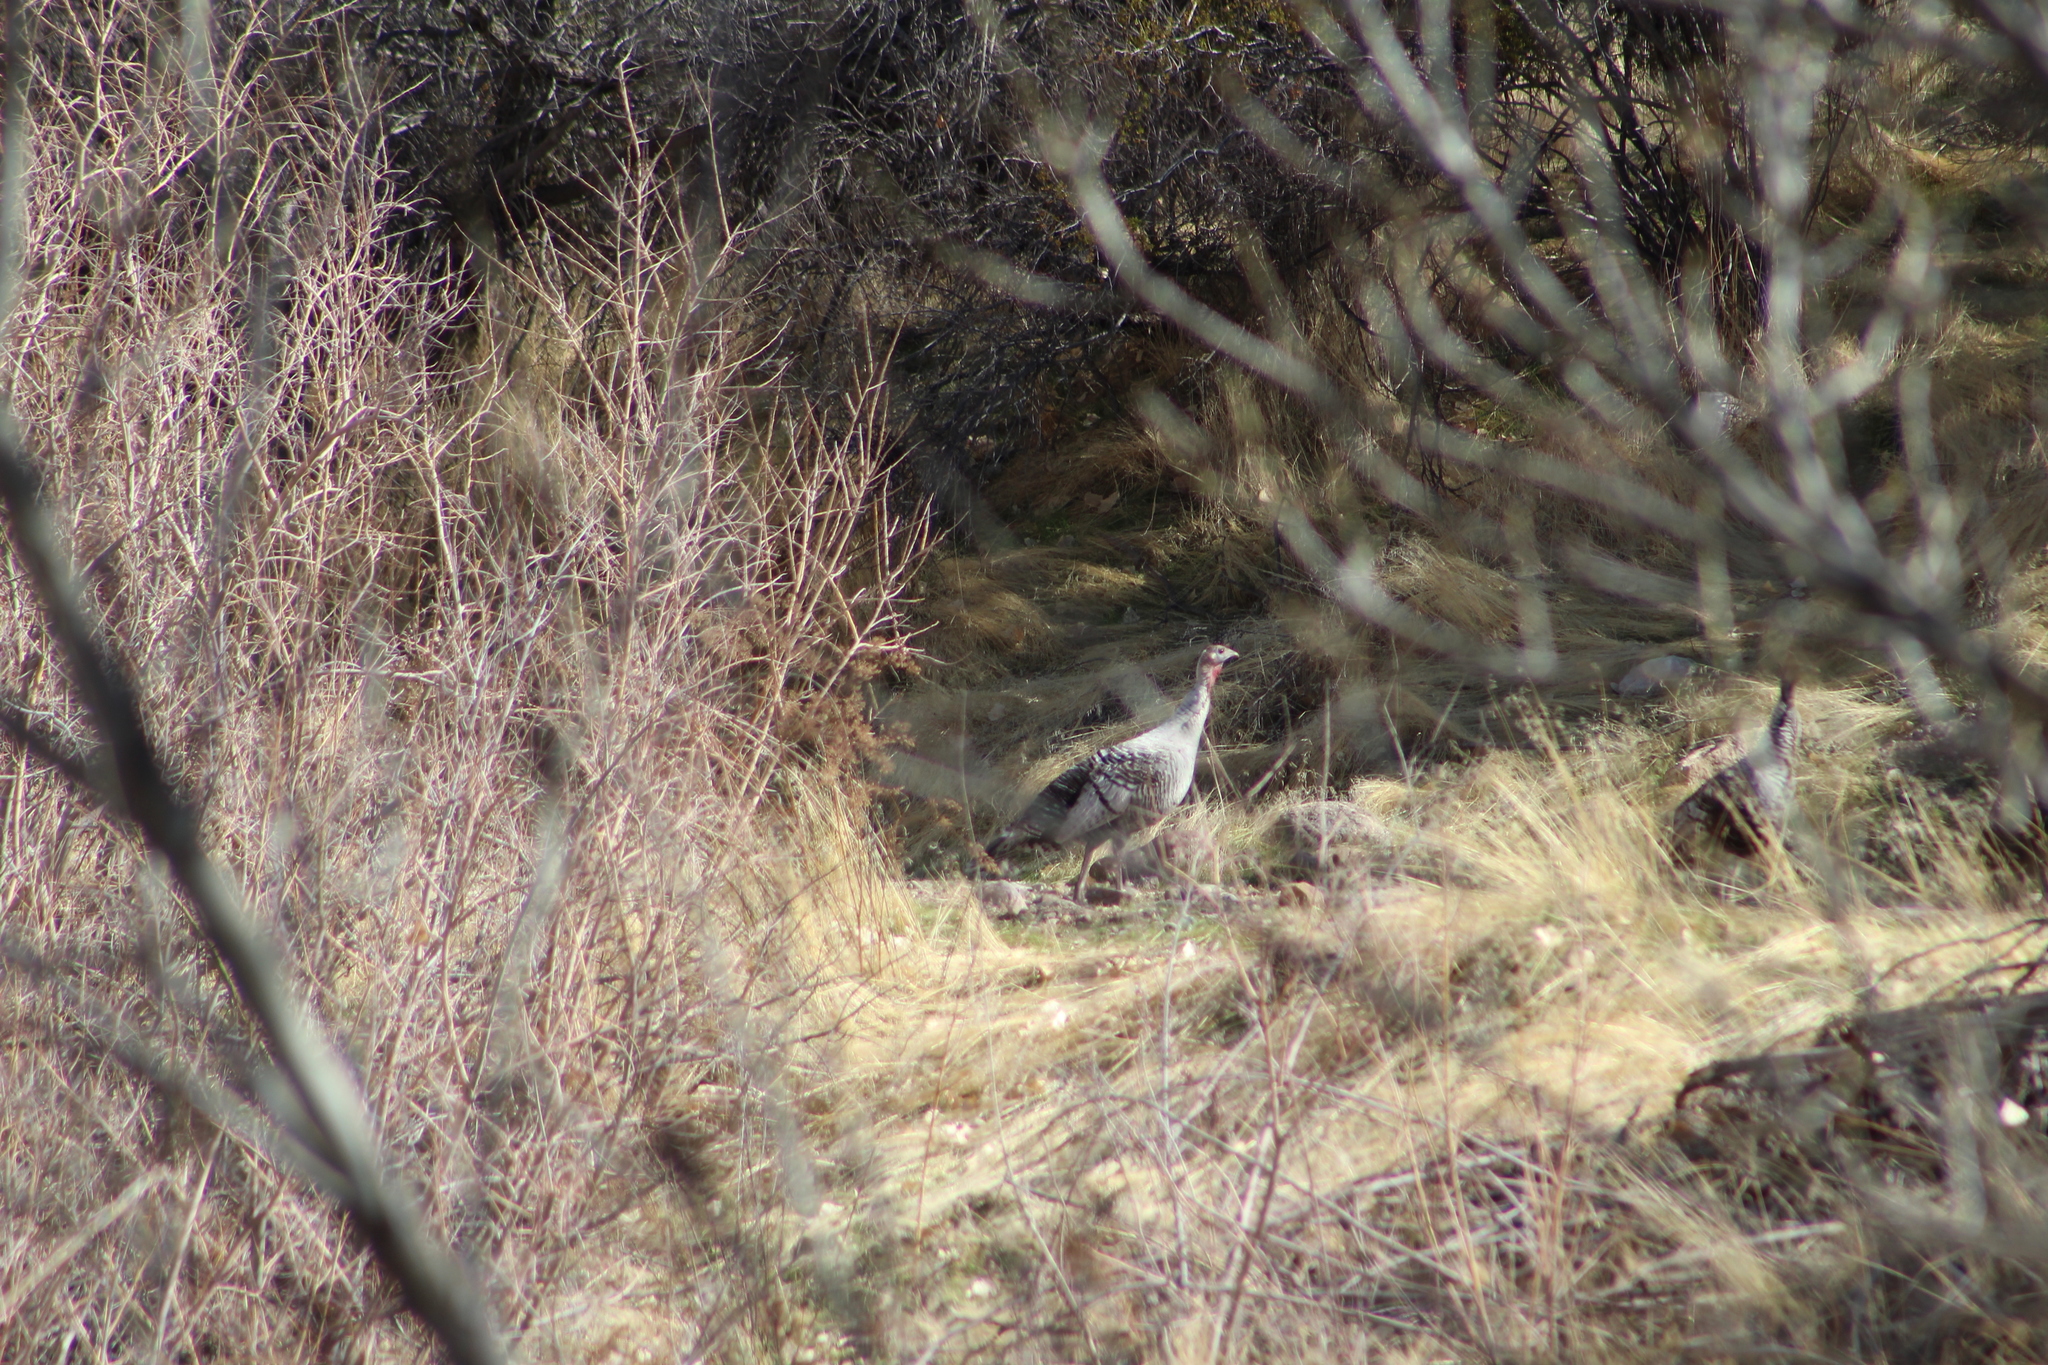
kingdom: Animalia
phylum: Chordata
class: Aves
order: Galliformes
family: Phasianidae
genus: Meleagris
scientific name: Meleagris gallopavo
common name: Wild turkey
